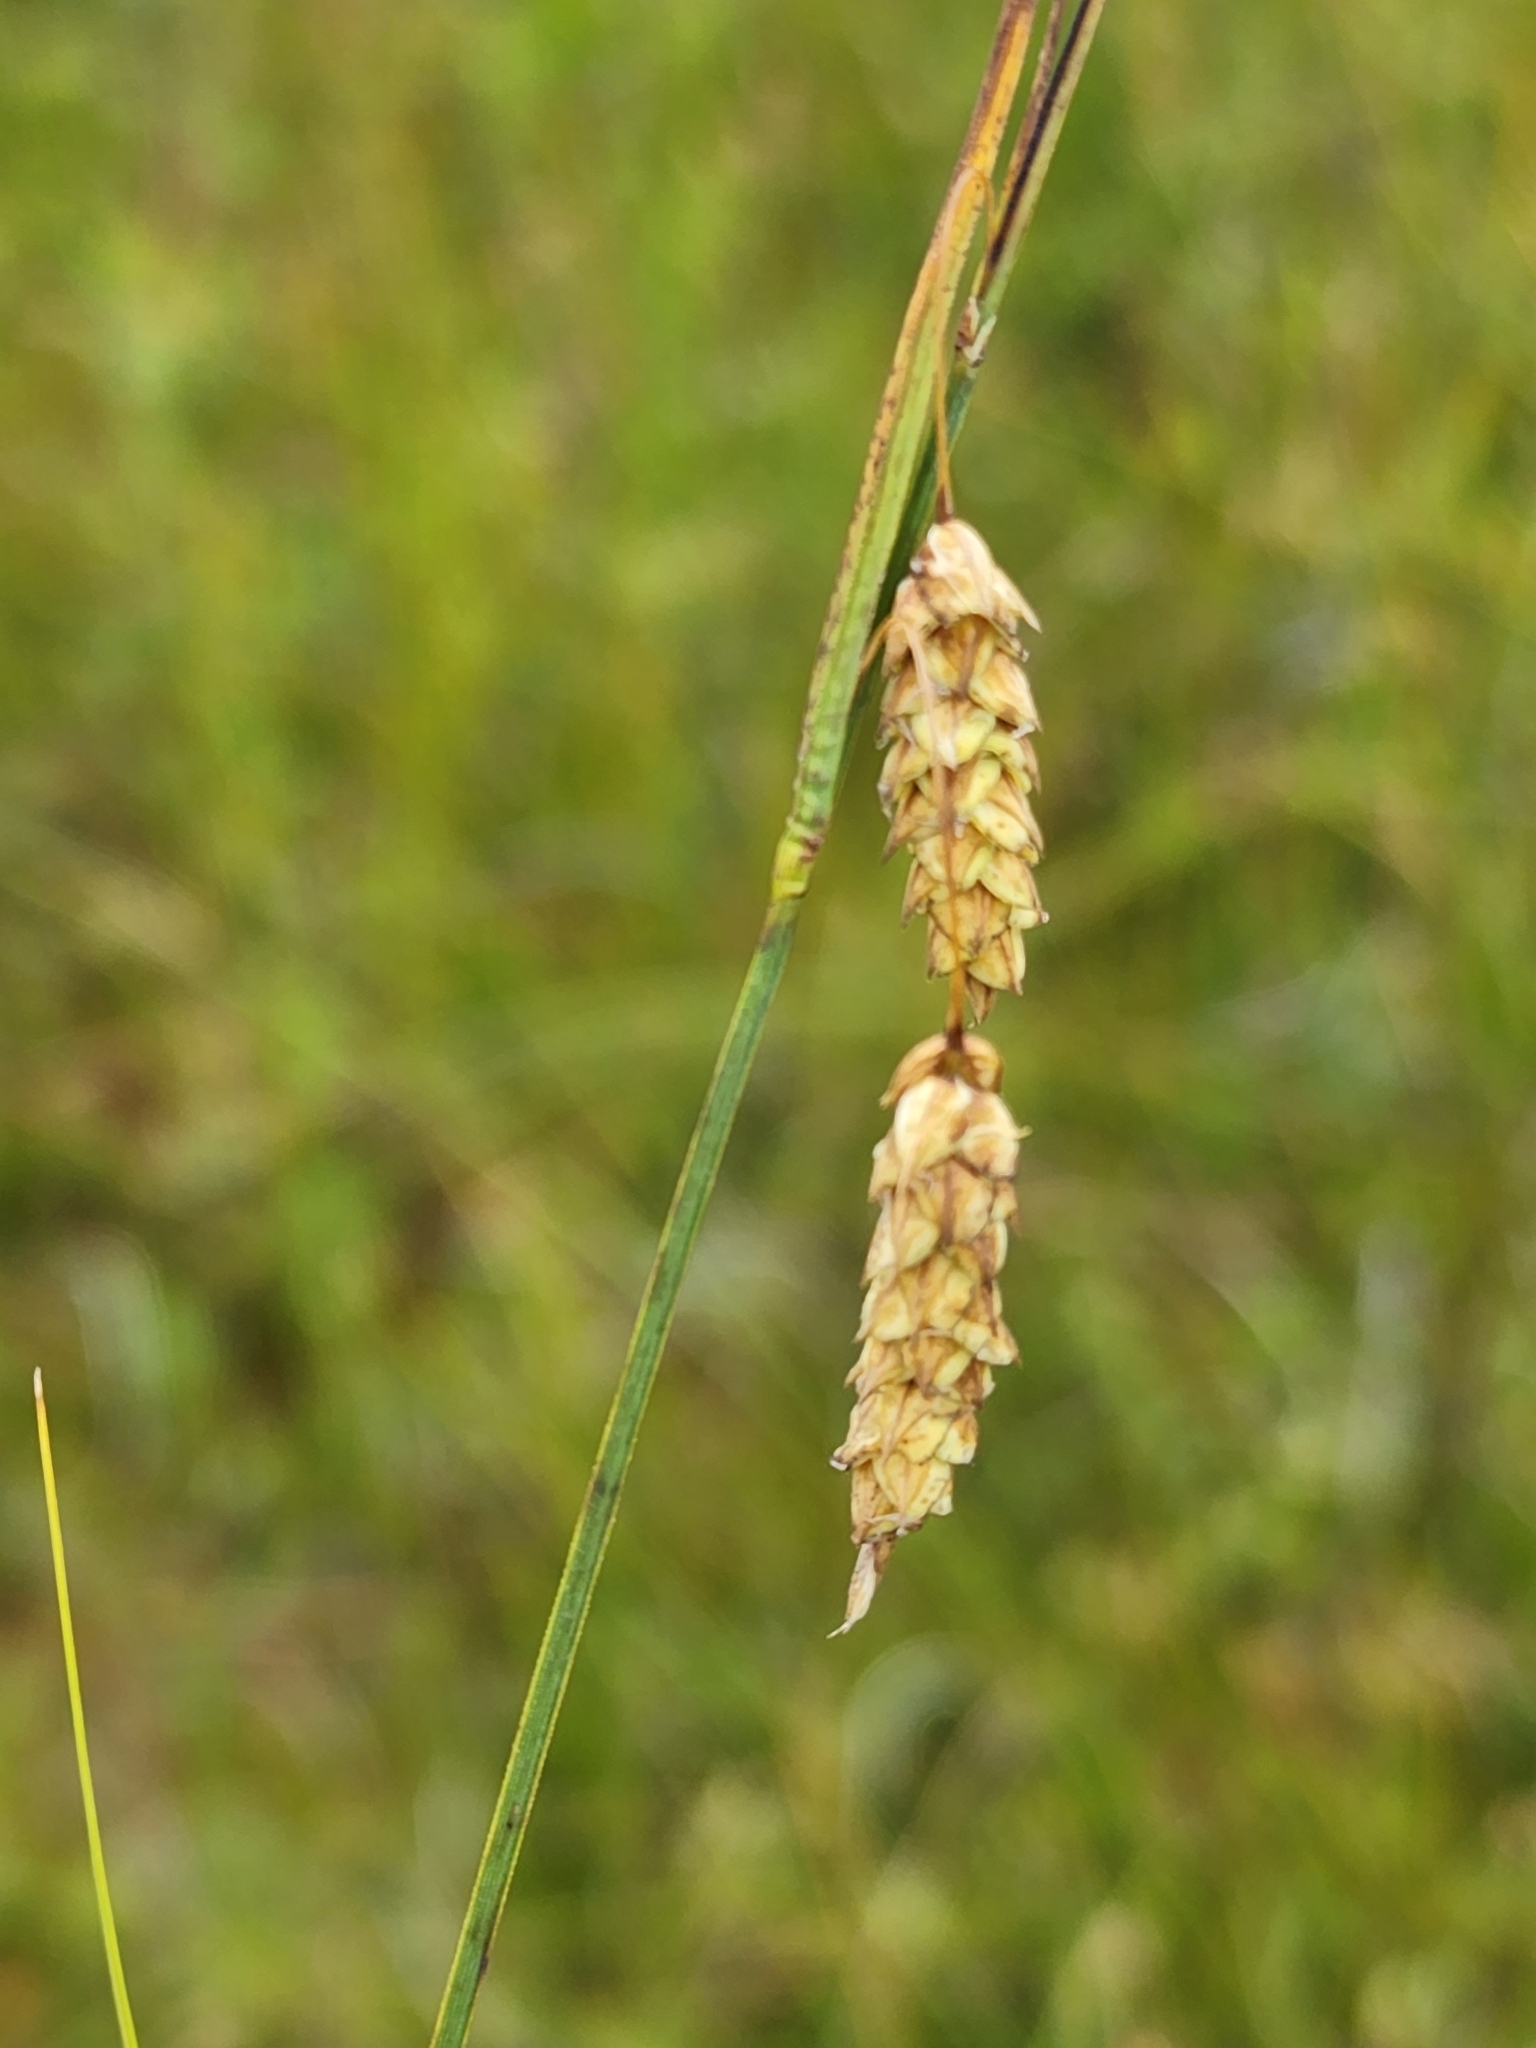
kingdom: Plantae
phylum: Tracheophyta
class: Liliopsida
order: Poales
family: Cyperaceae
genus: Carex
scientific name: Carex limosa
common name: Bog sedge
